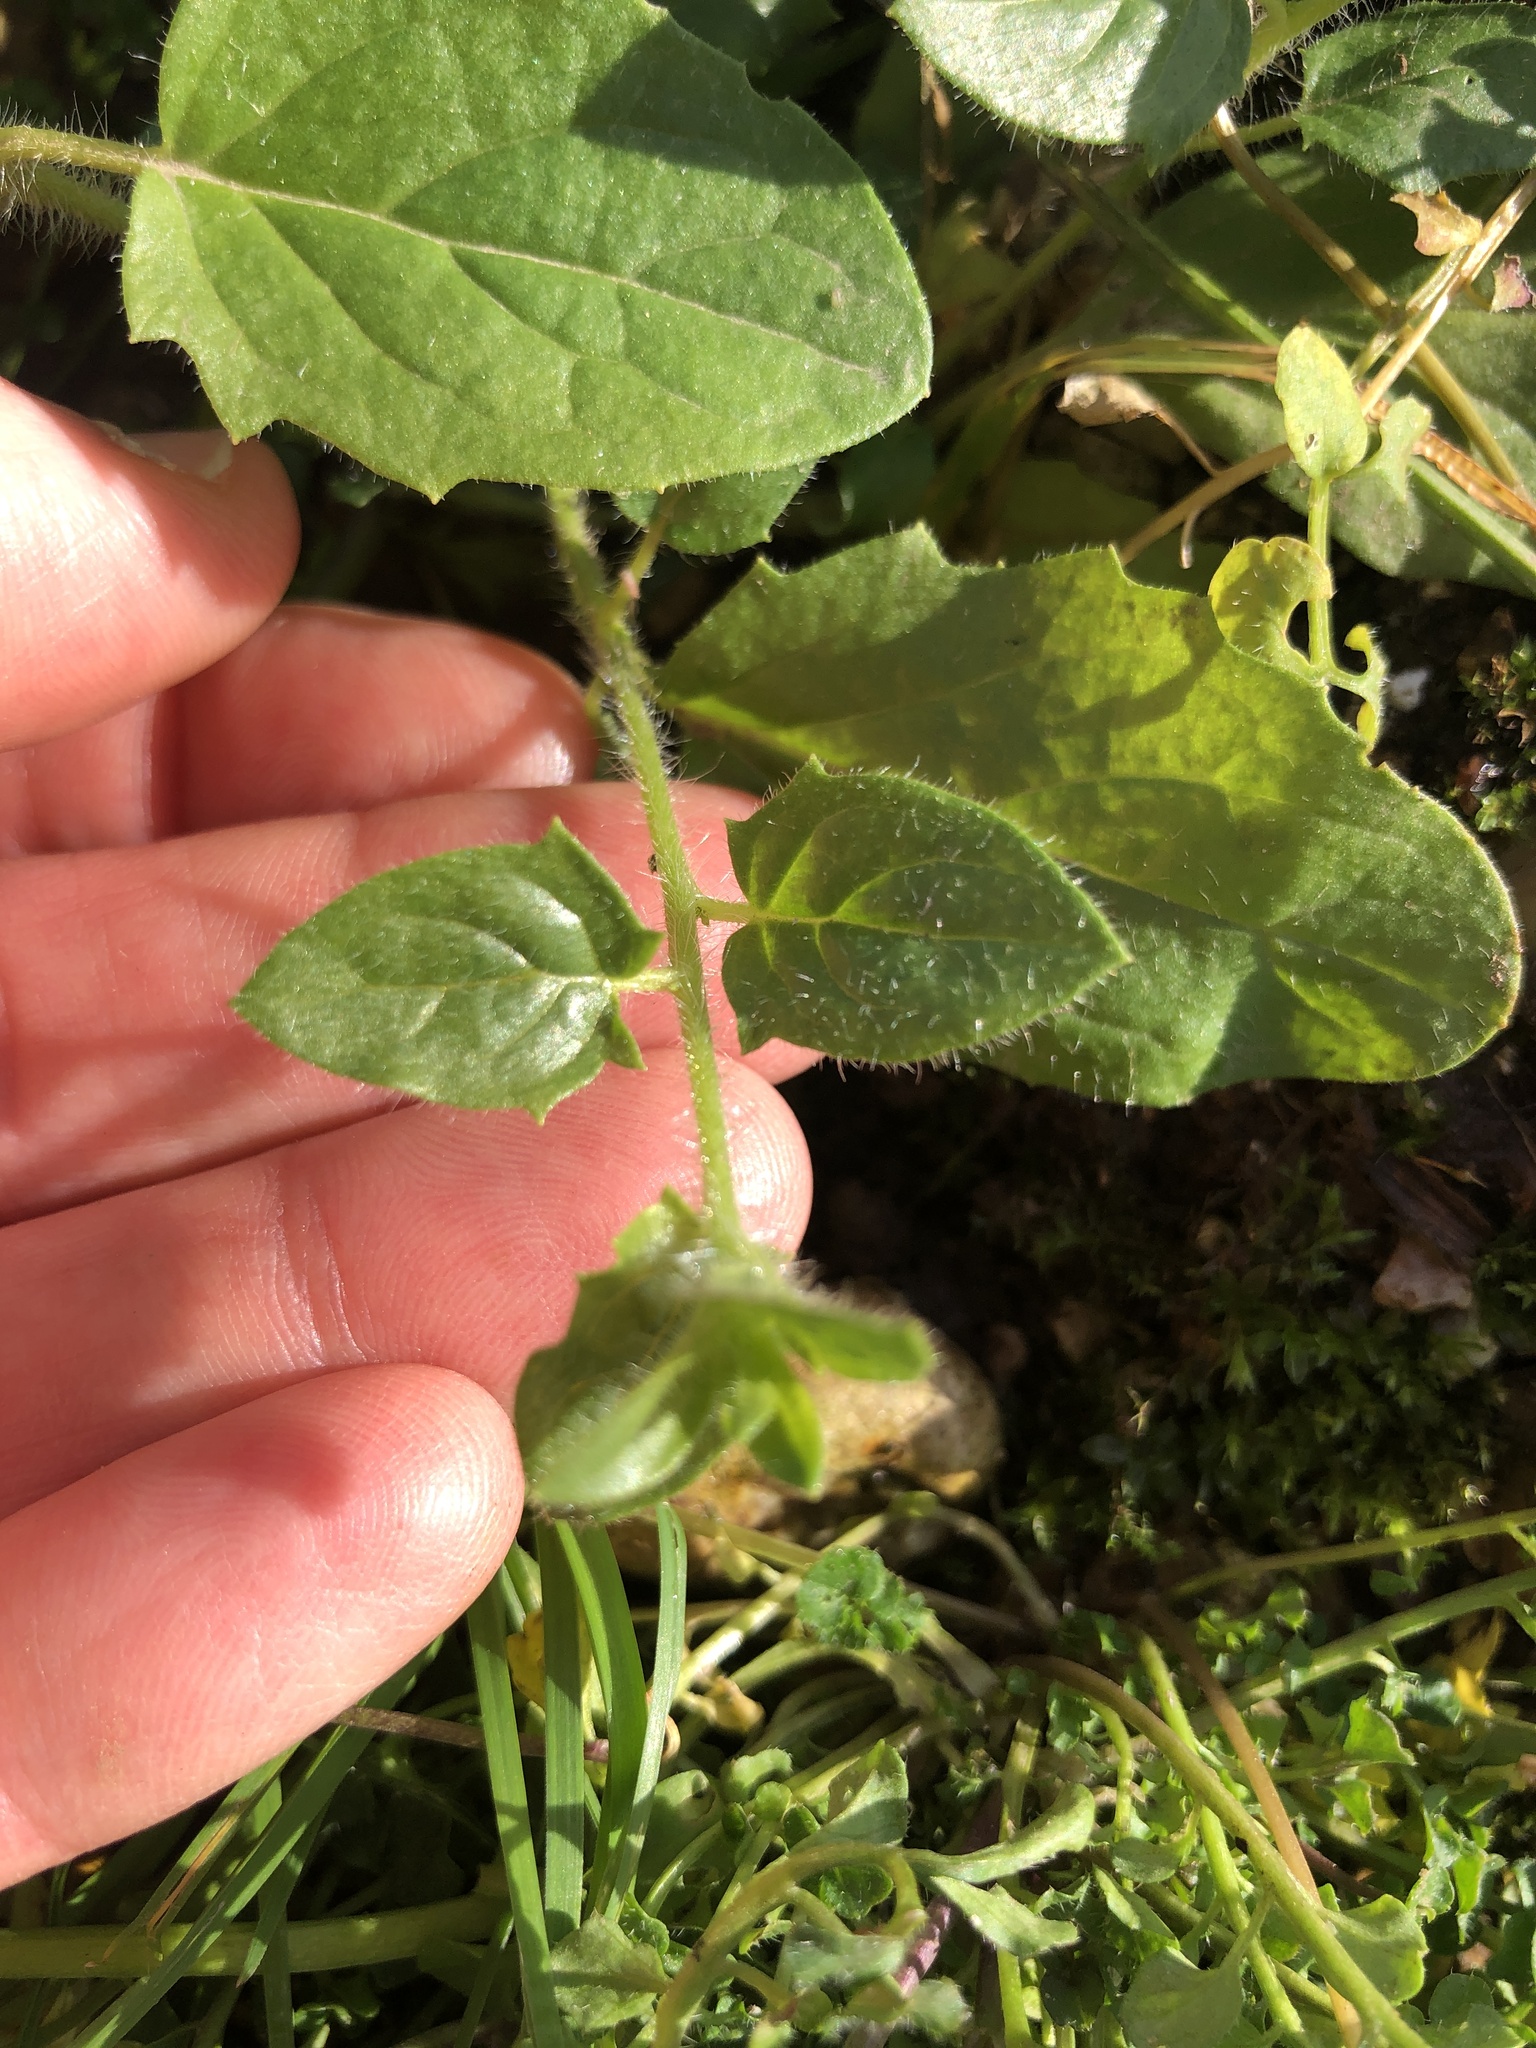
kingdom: Plantae
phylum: Tracheophyta
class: Magnoliopsida
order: Lamiales
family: Plantaginaceae
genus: Kickxia
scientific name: Kickxia elatine
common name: Sharp-leaved fluellen
